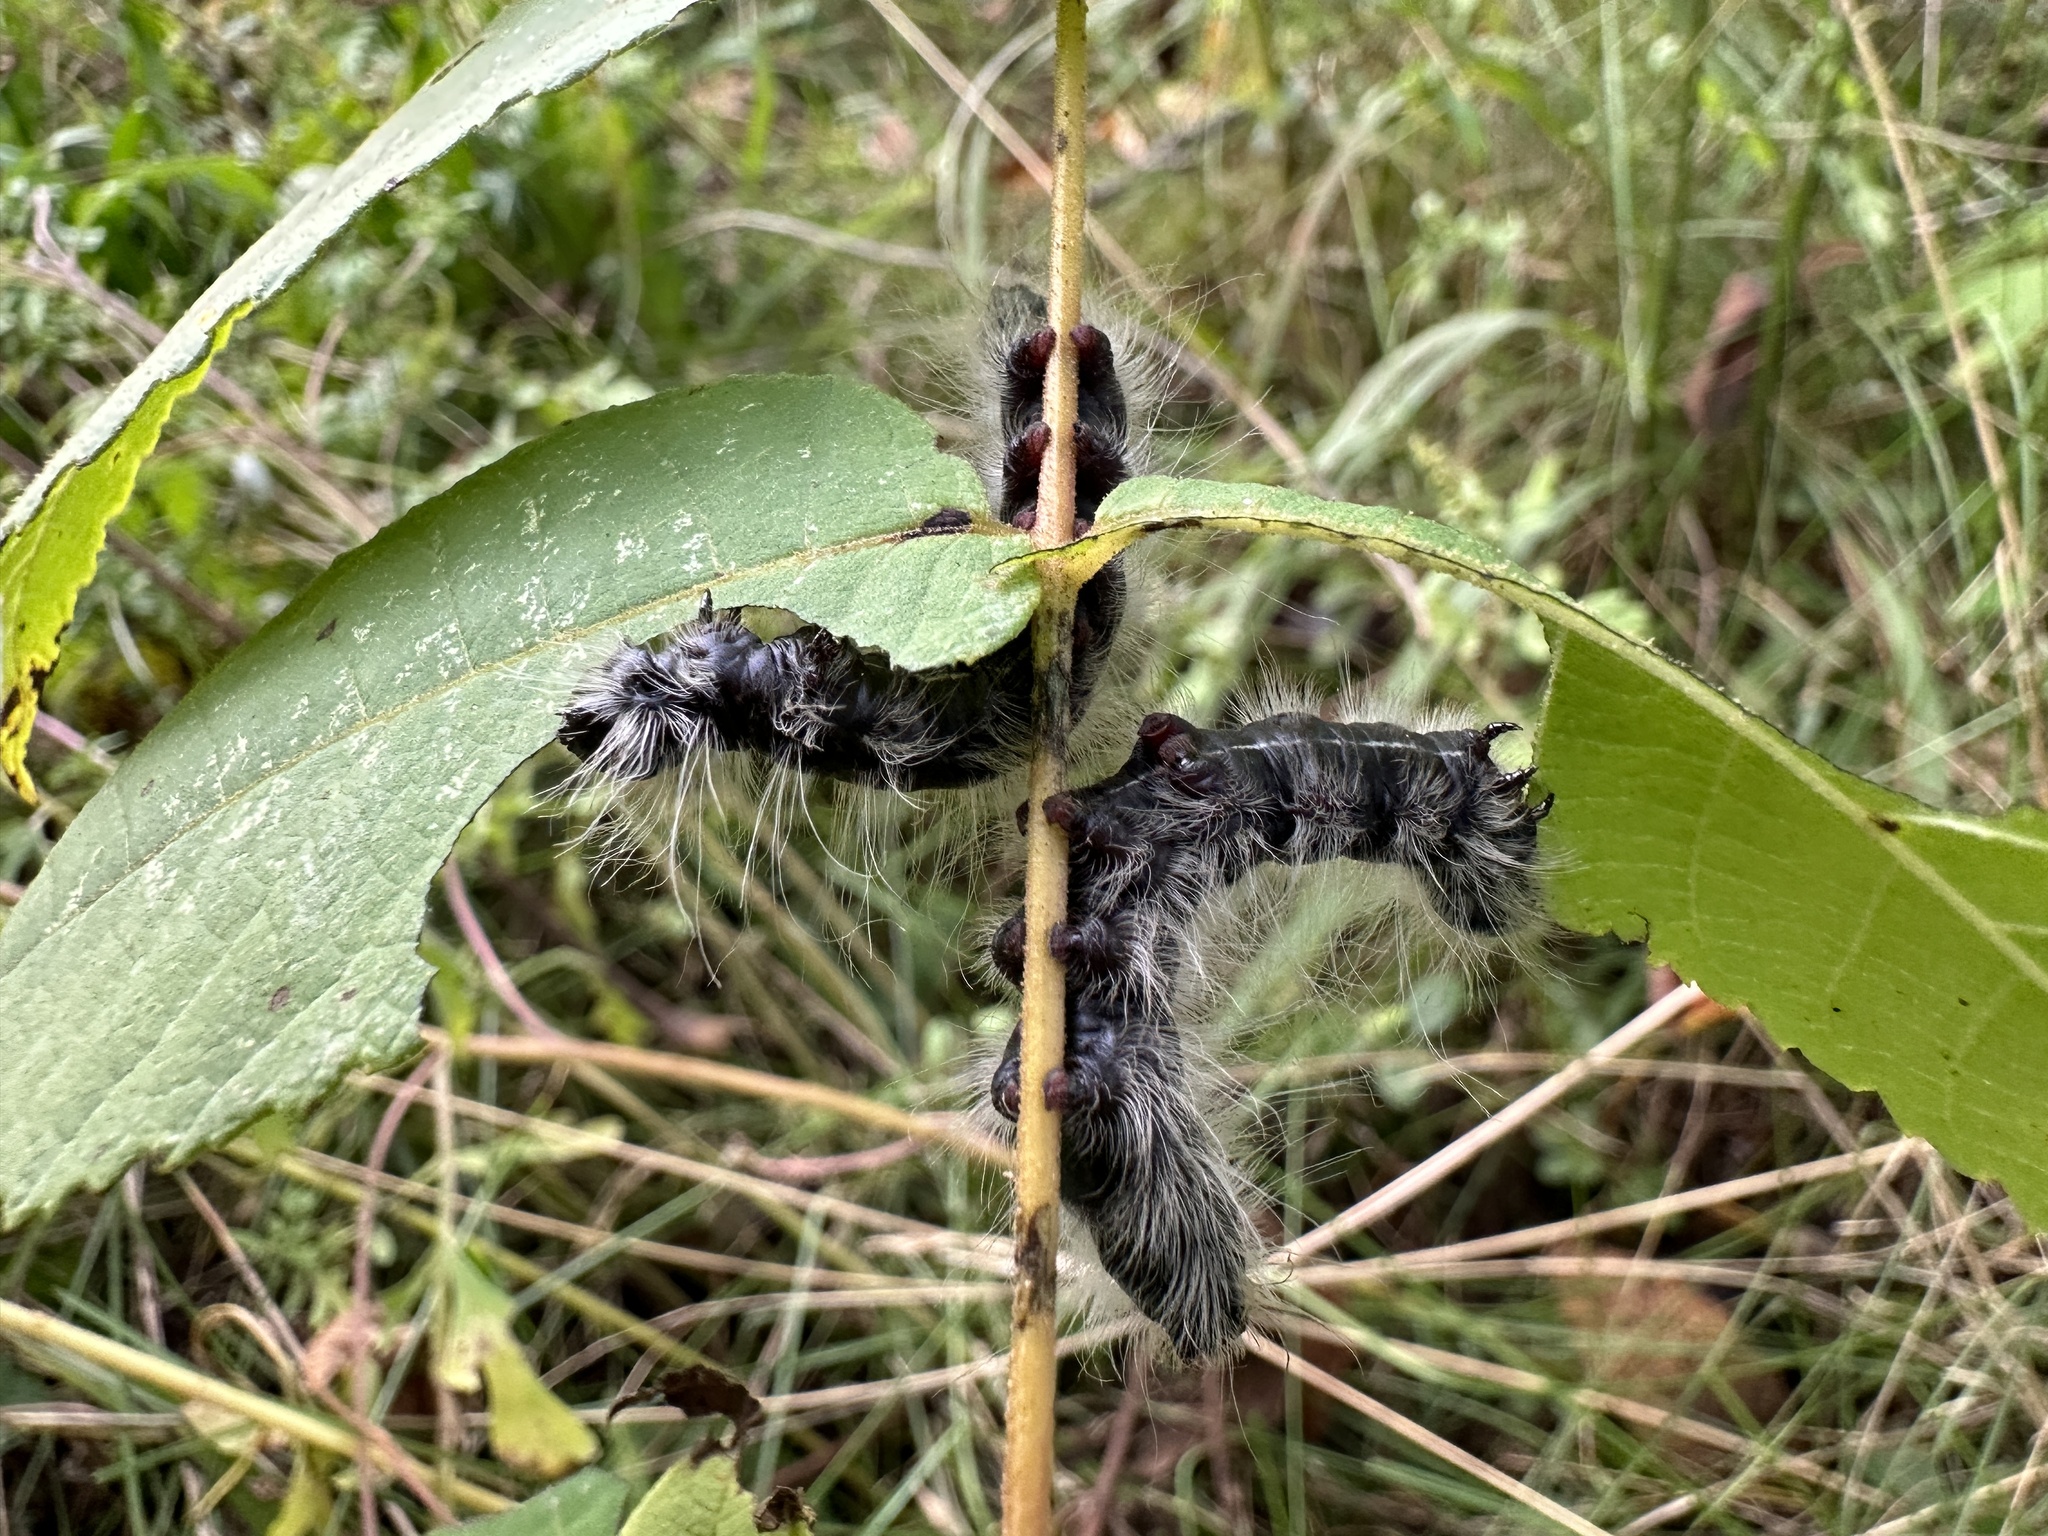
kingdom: Animalia
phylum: Arthropoda
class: Insecta
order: Lepidoptera
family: Notodontidae
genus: Datana
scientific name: Datana integerrima
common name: Walnut caterpillar
